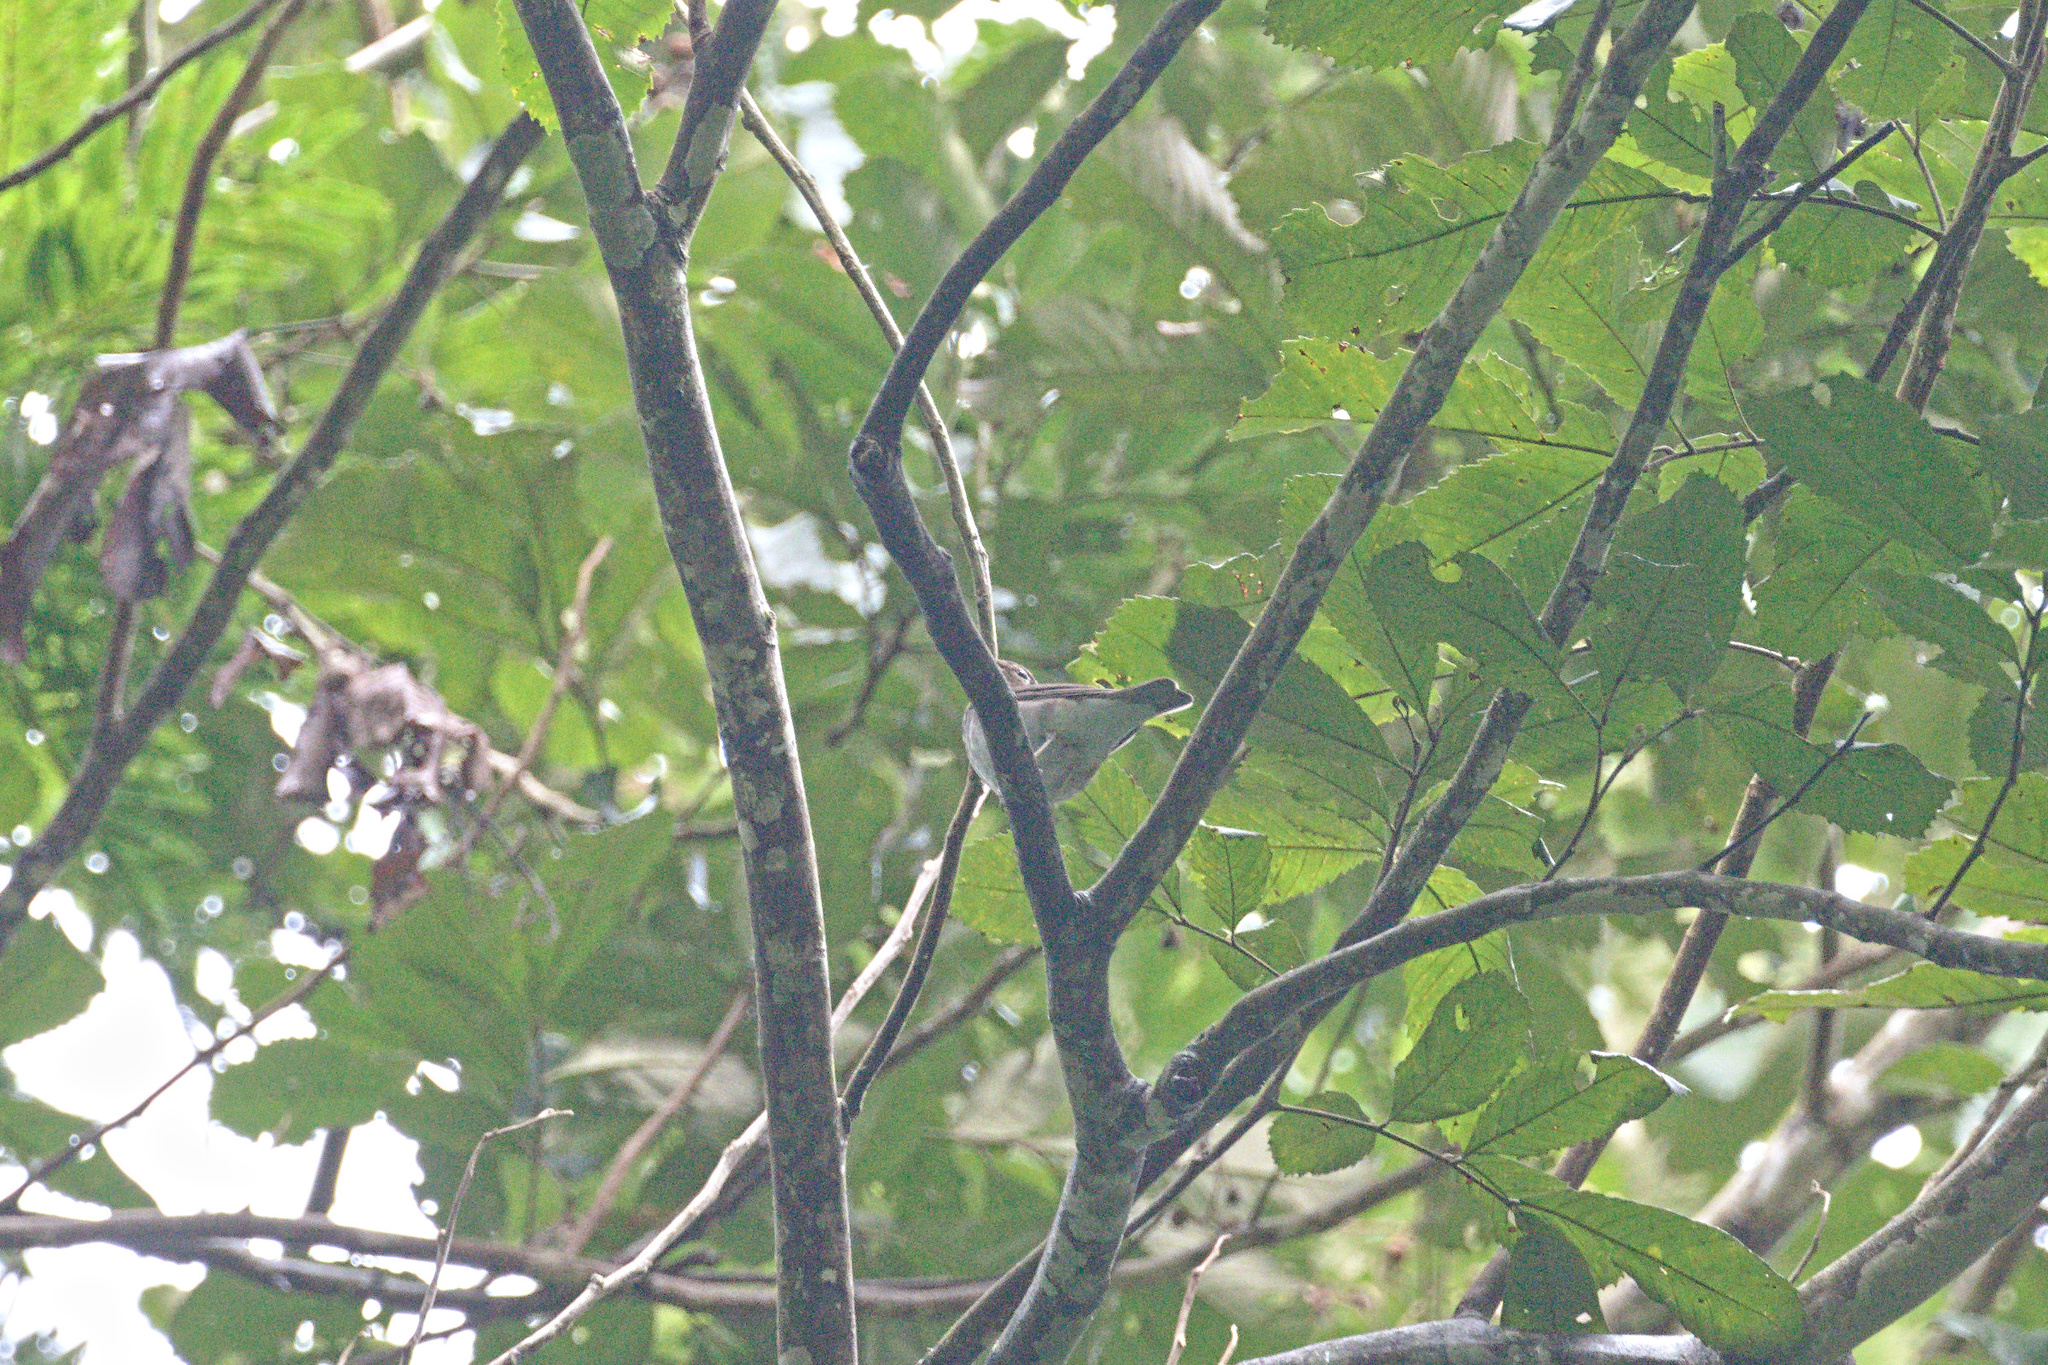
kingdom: Animalia
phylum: Chordata
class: Aves
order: Passeriformes
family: Turdidae
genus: Catharus
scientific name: Catharus ustulatus
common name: Swainson's thrush
